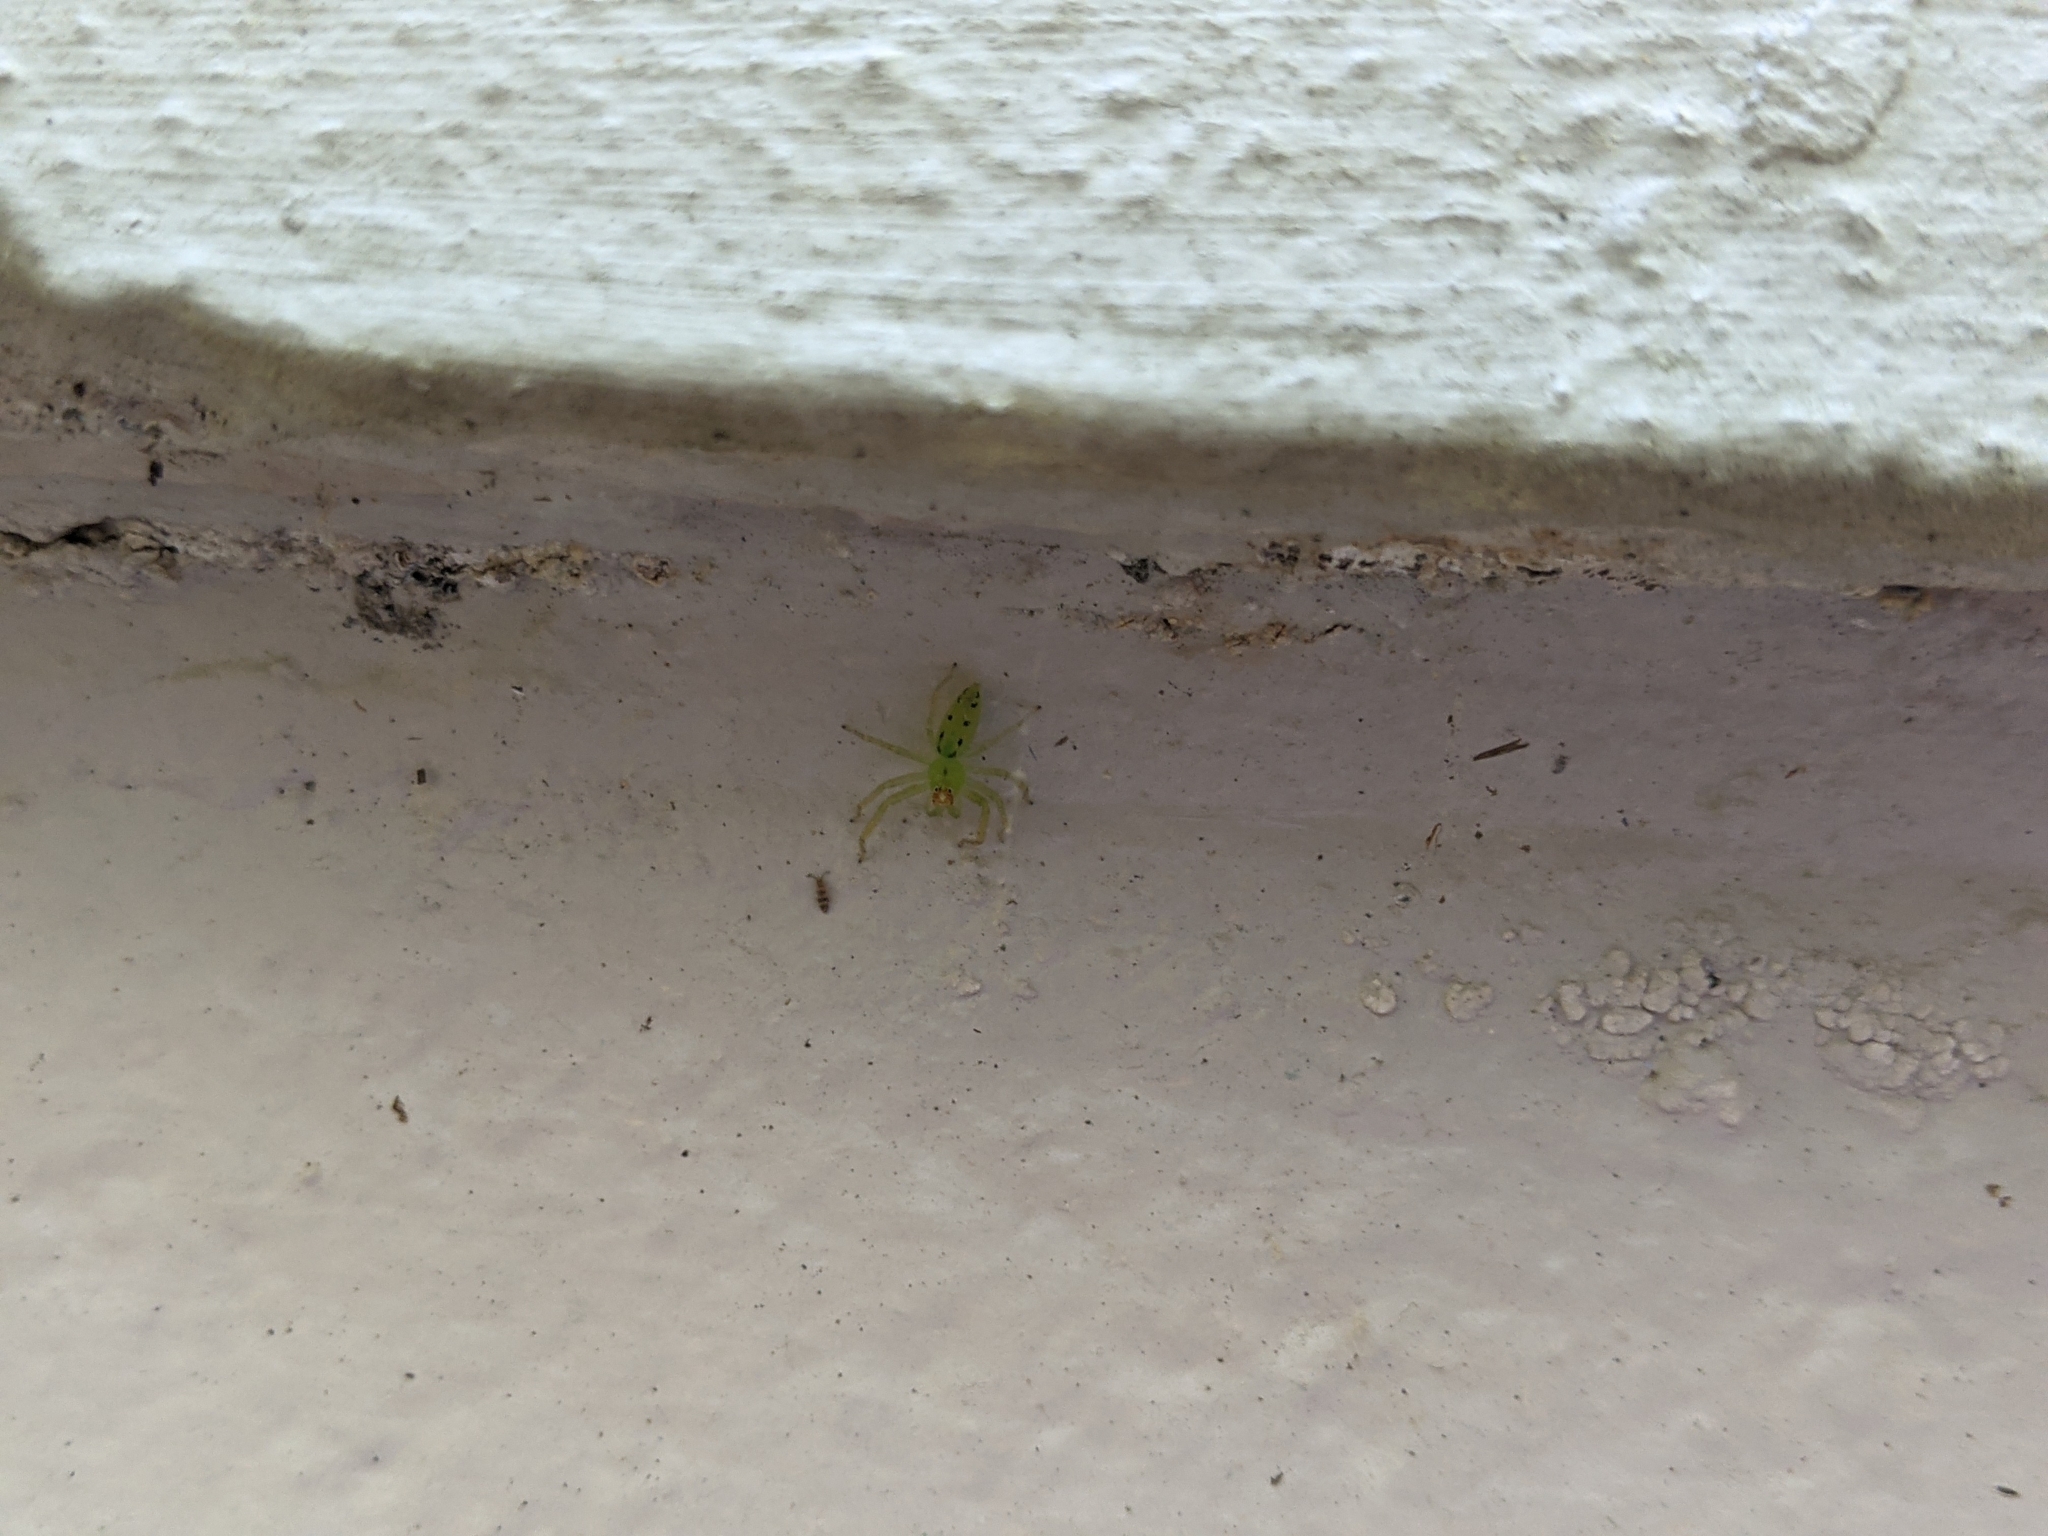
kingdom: Animalia
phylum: Arthropoda
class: Arachnida
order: Araneae
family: Salticidae
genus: Lyssomanes
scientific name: Lyssomanes viridis
